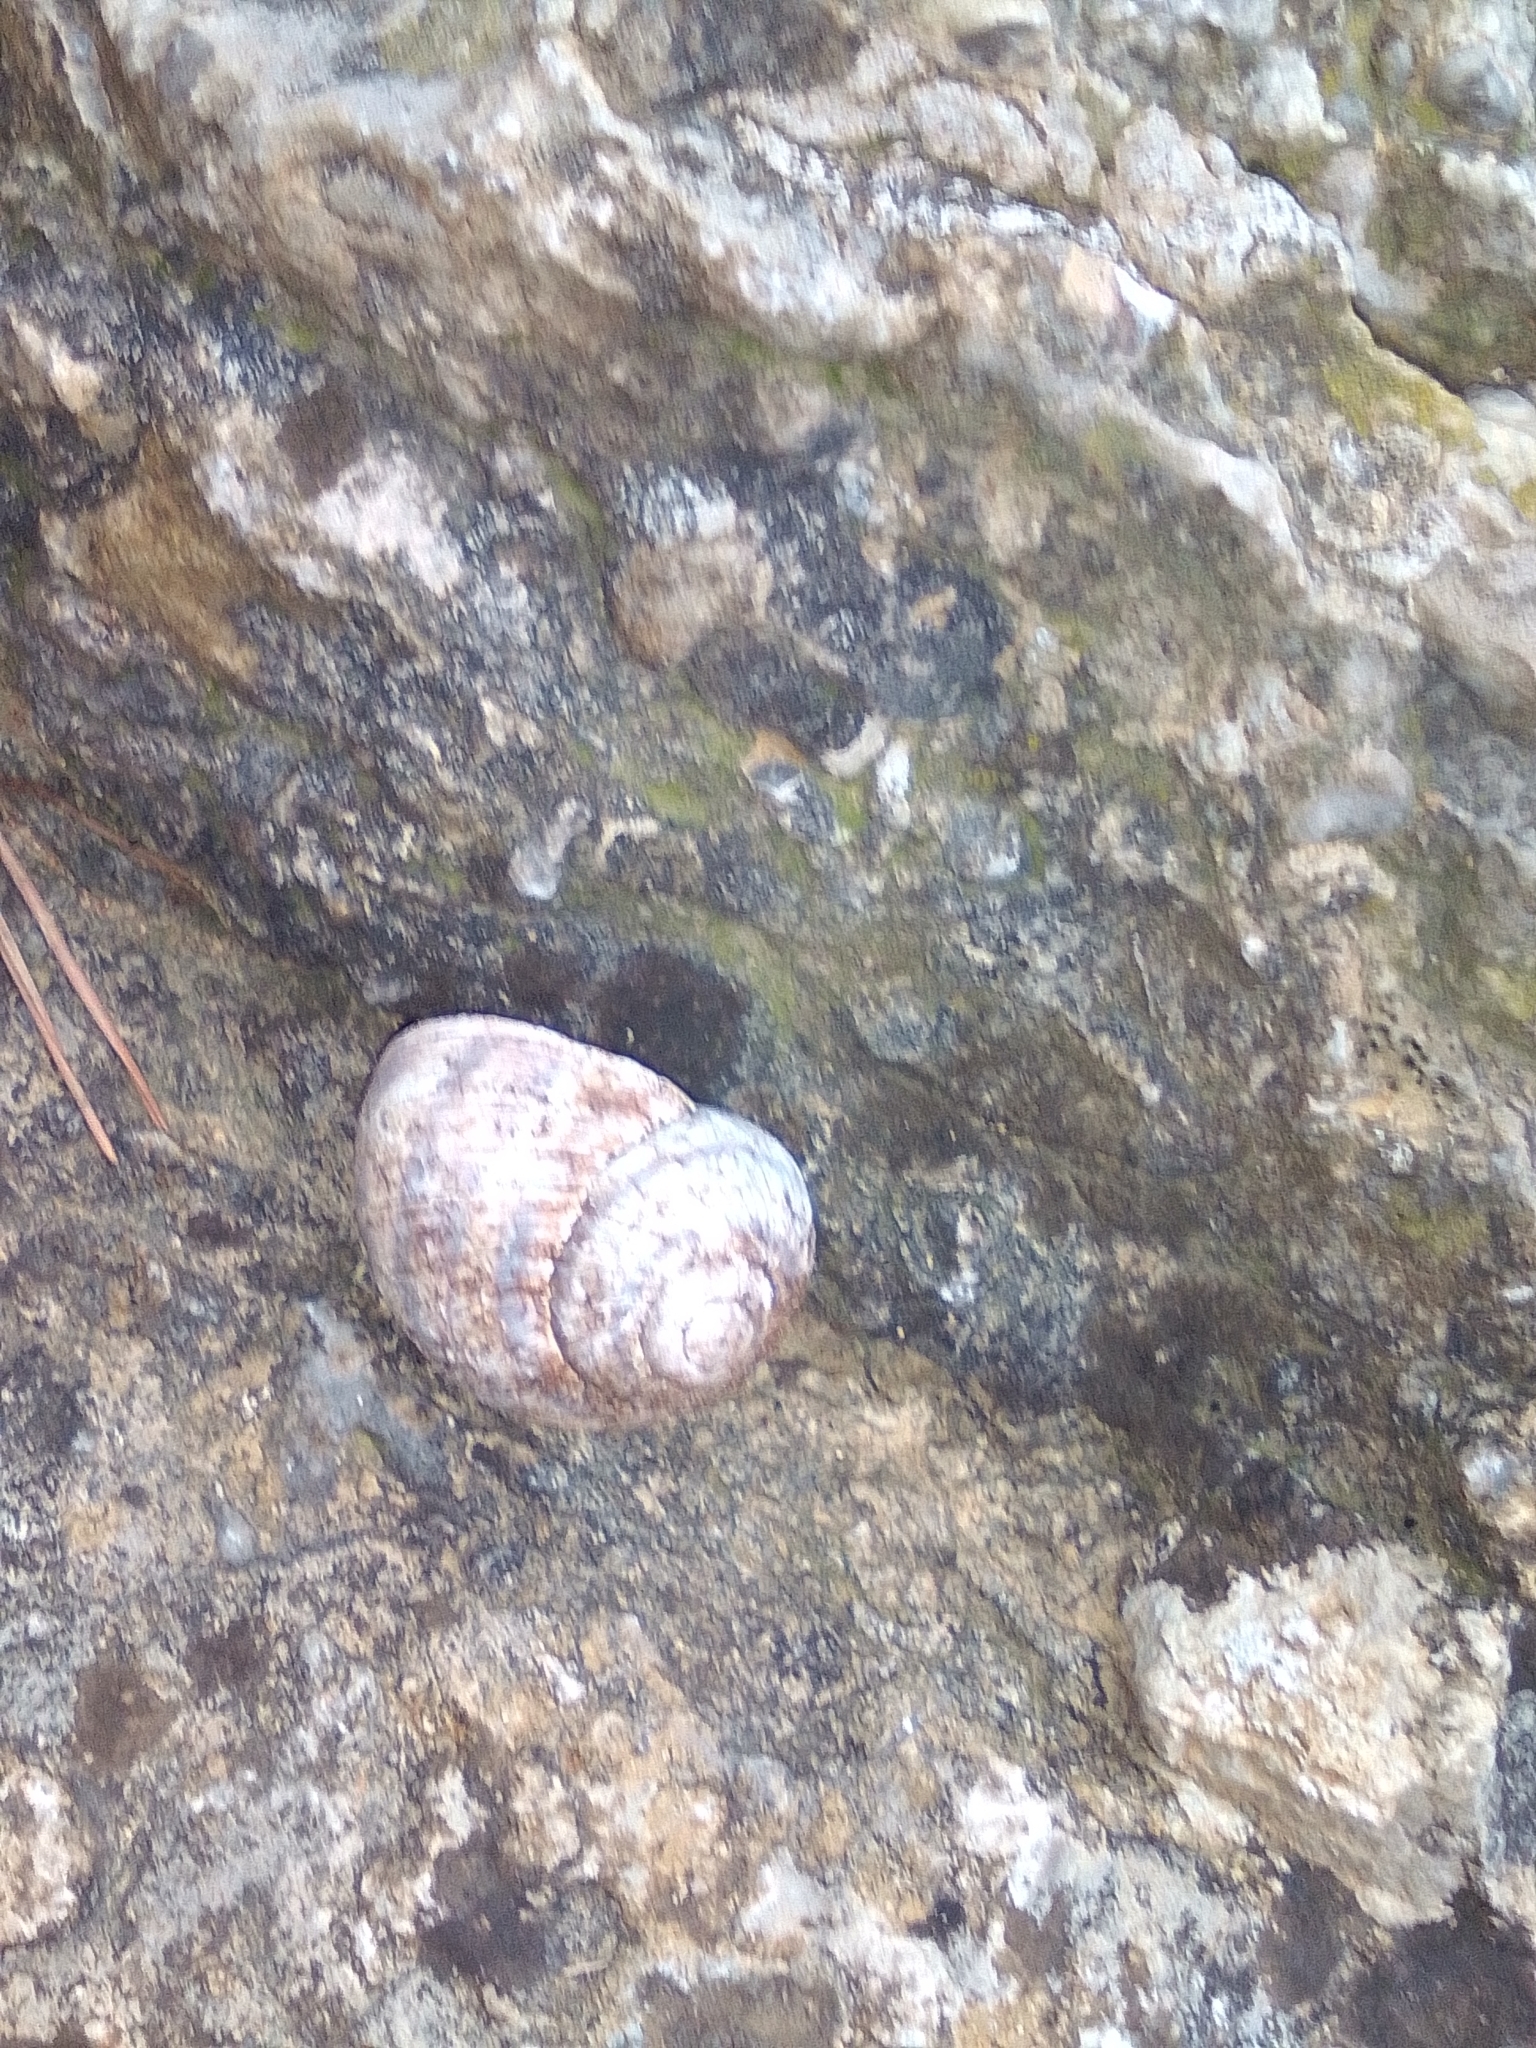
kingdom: Animalia
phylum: Mollusca
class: Gastropoda
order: Stylommatophora
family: Helicidae
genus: Helix
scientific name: Helix albescens
